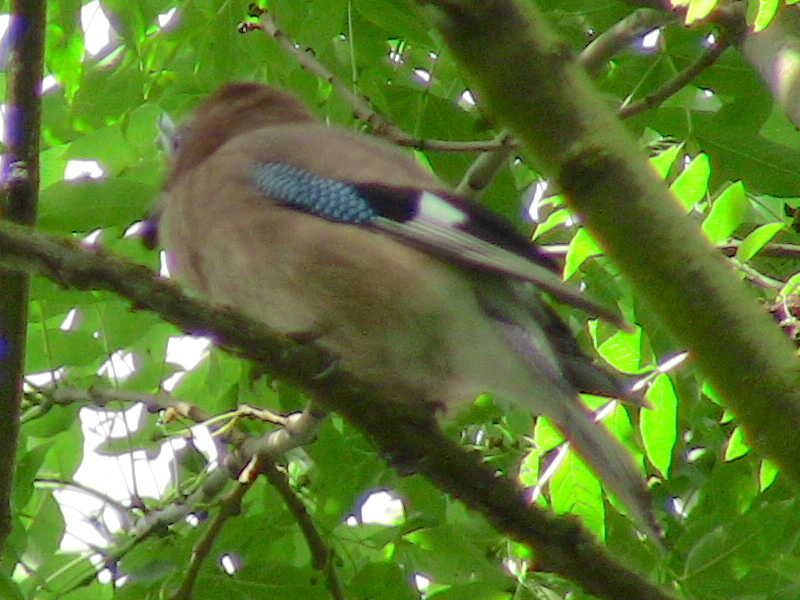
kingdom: Animalia
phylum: Chordata
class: Aves
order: Passeriformes
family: Corvidae
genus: Garrulus
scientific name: Garrulus glandarius
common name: Eurasian jay
